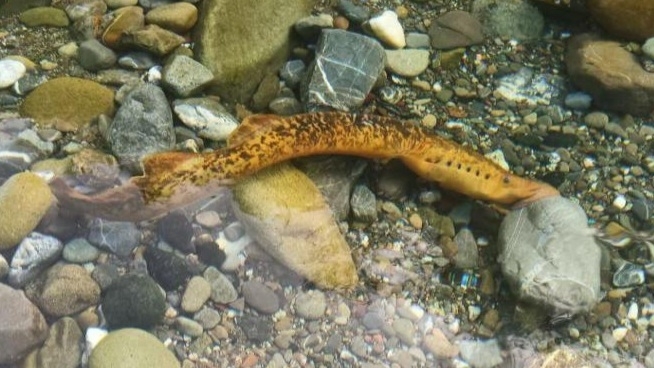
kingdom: Animalia
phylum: Chordata
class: Petromyzonti
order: Petromyzontiformes
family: Petromyzontidae
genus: Petromyzon
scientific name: Petromyzon marinus
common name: Sea lamprey
